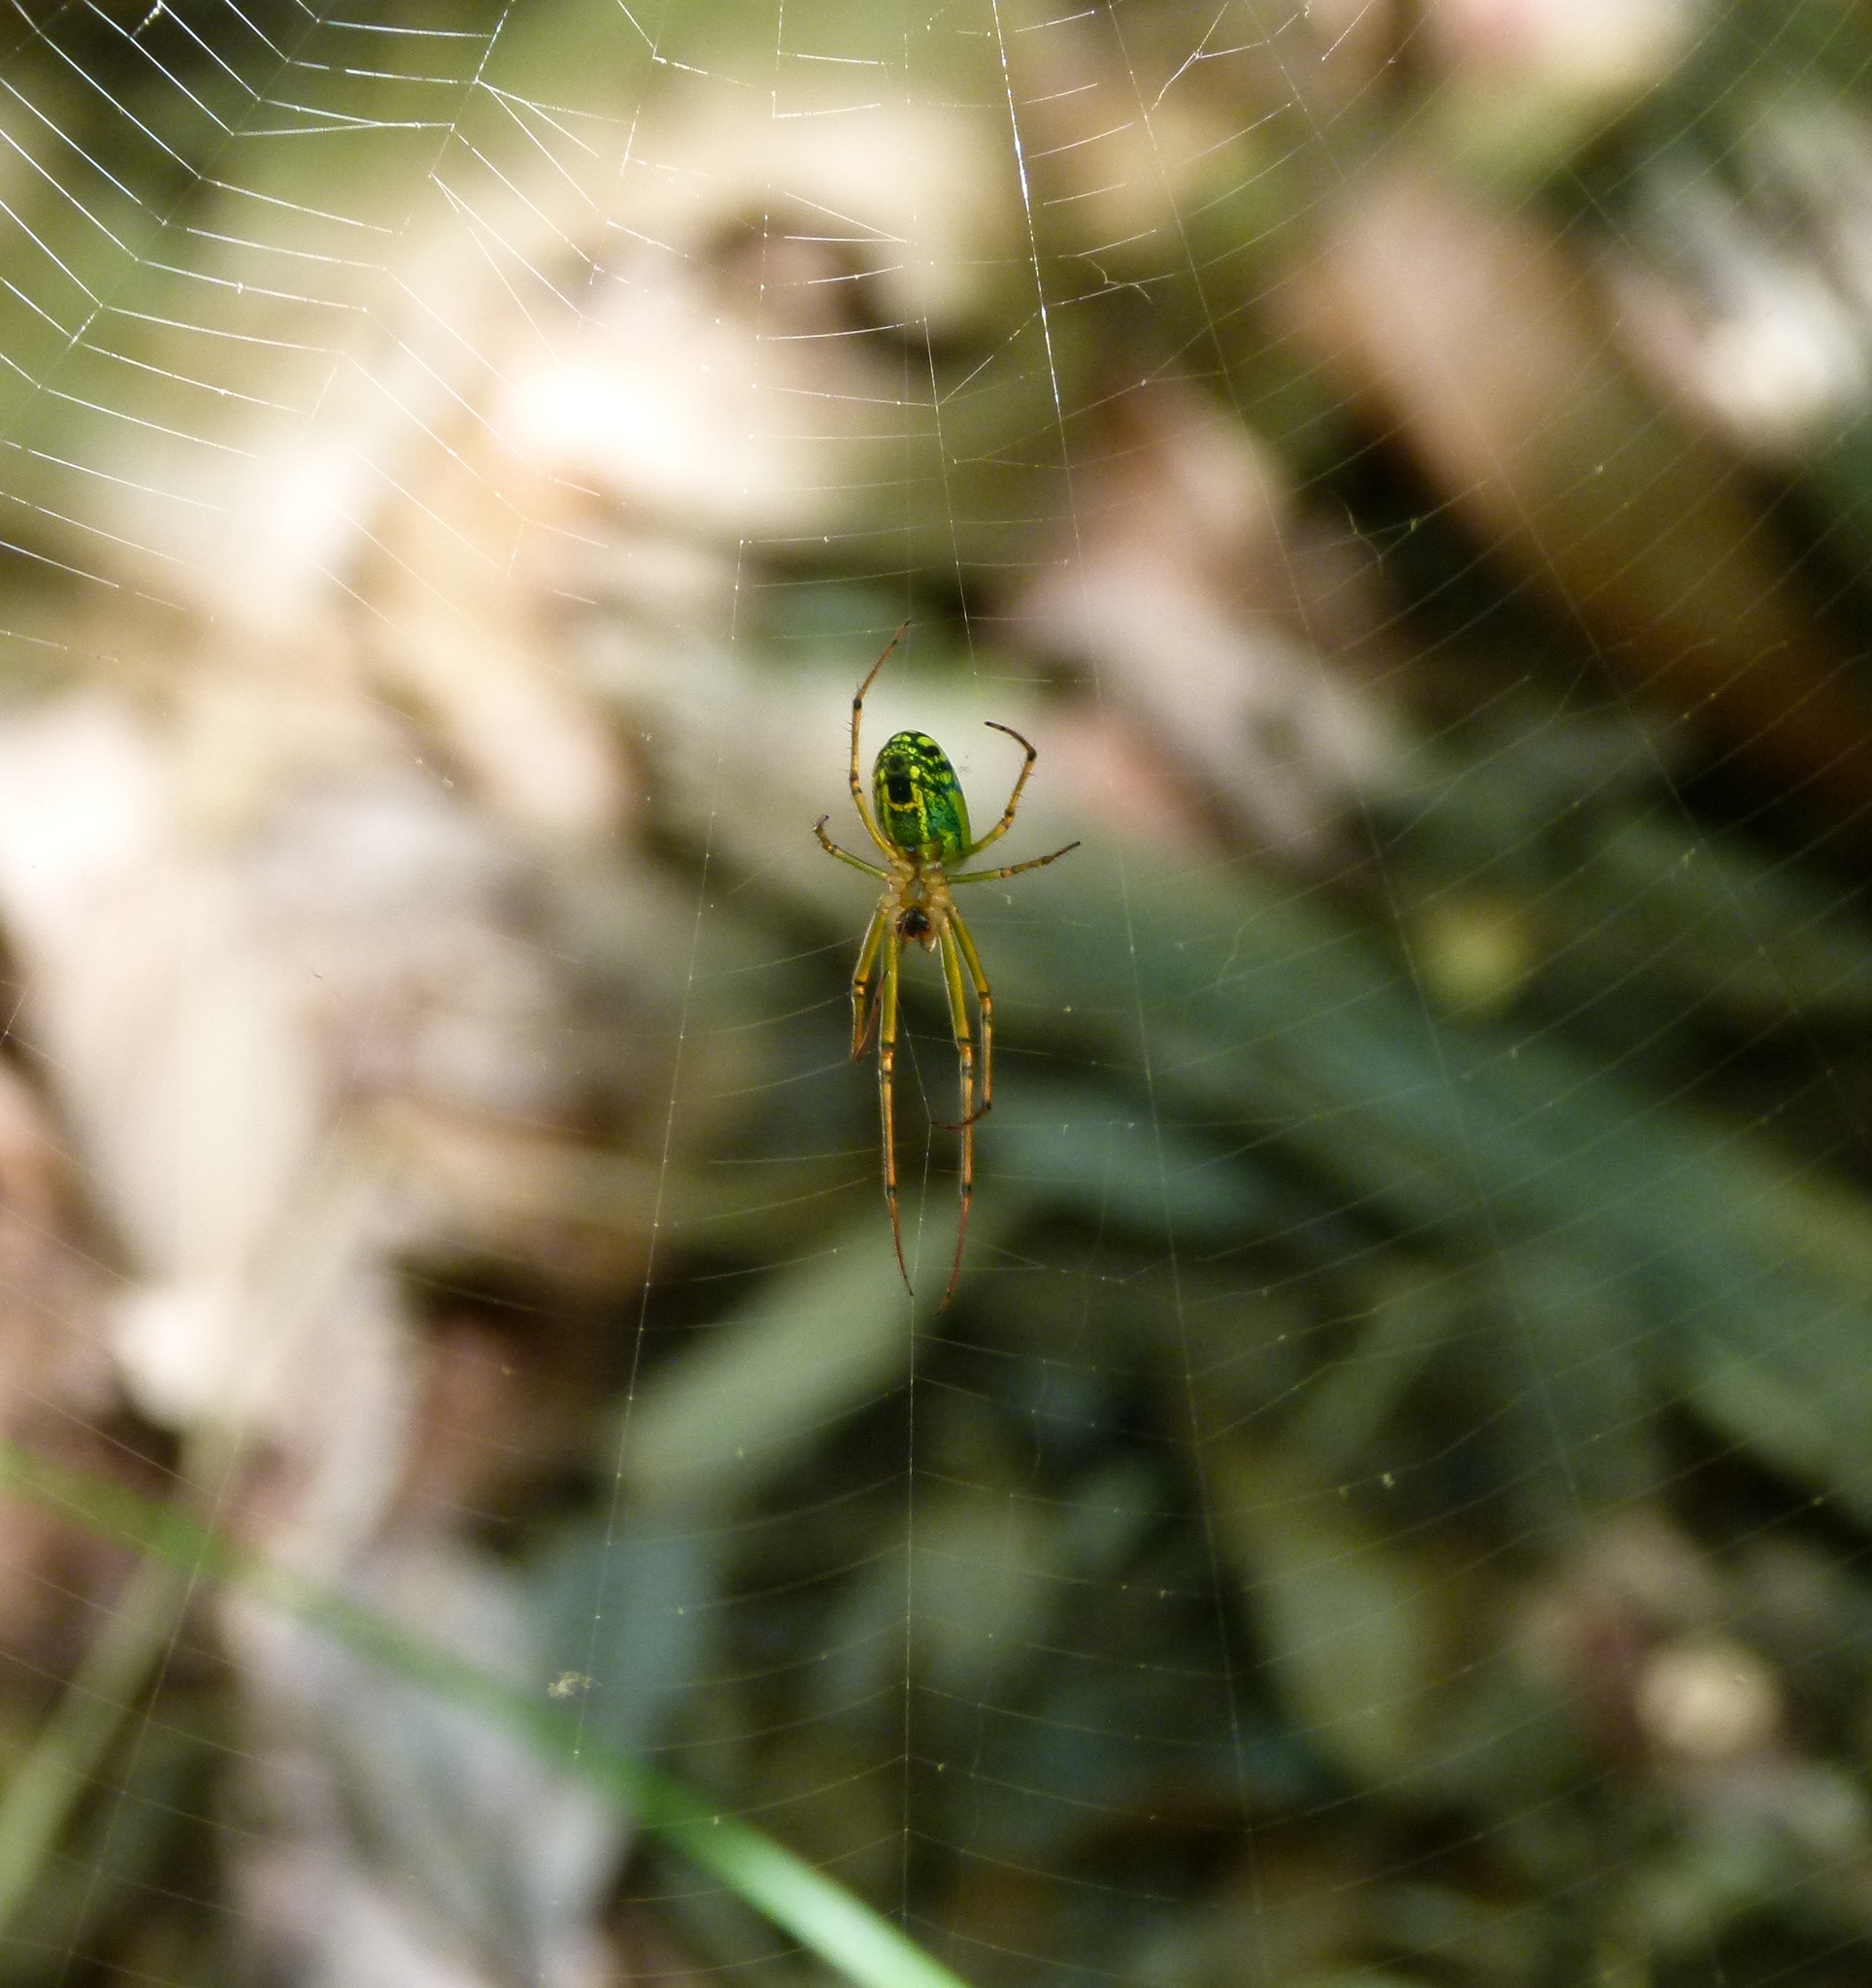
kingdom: Animalia
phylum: Arthropoda
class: Arachnida
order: Araneae
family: Tetragnathidae
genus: Leucauge
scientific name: Leucauge venusta
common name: Longjawed orb weavers
